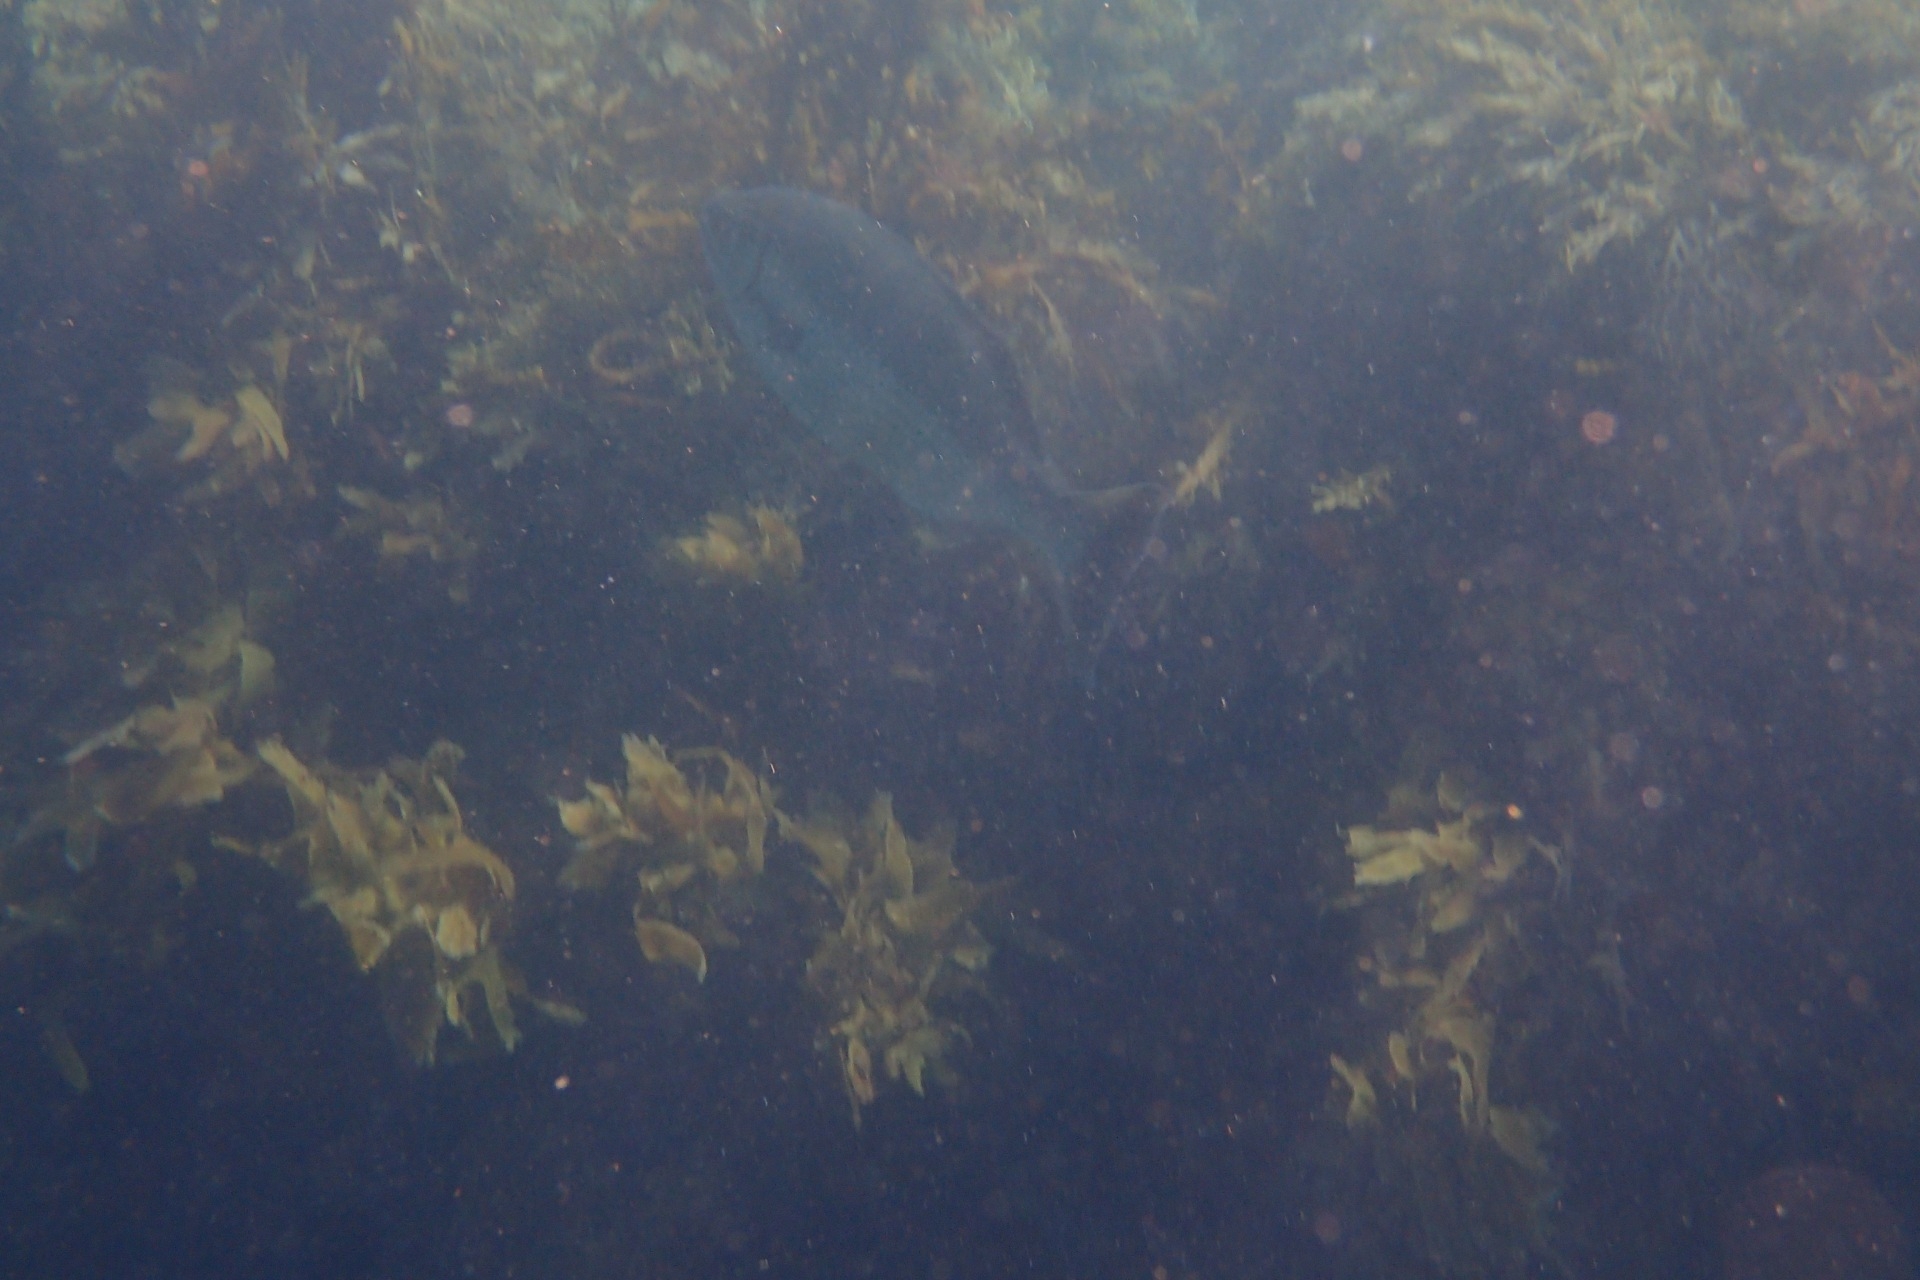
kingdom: Animalia
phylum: Chordata
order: Perciformes
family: Kyphosidae
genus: Kyphosus
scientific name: Kyphosus sydneyanus
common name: Silver drummer
